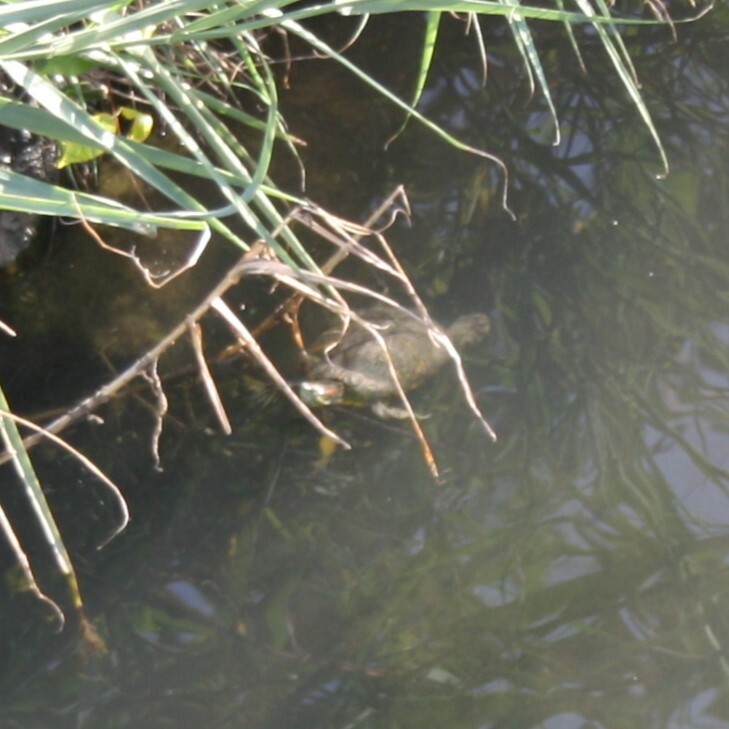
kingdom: Animalia
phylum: Chordata
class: Testudines
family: Emydidae
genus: Trachemys
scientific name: Trachemys scripta
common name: Slider
